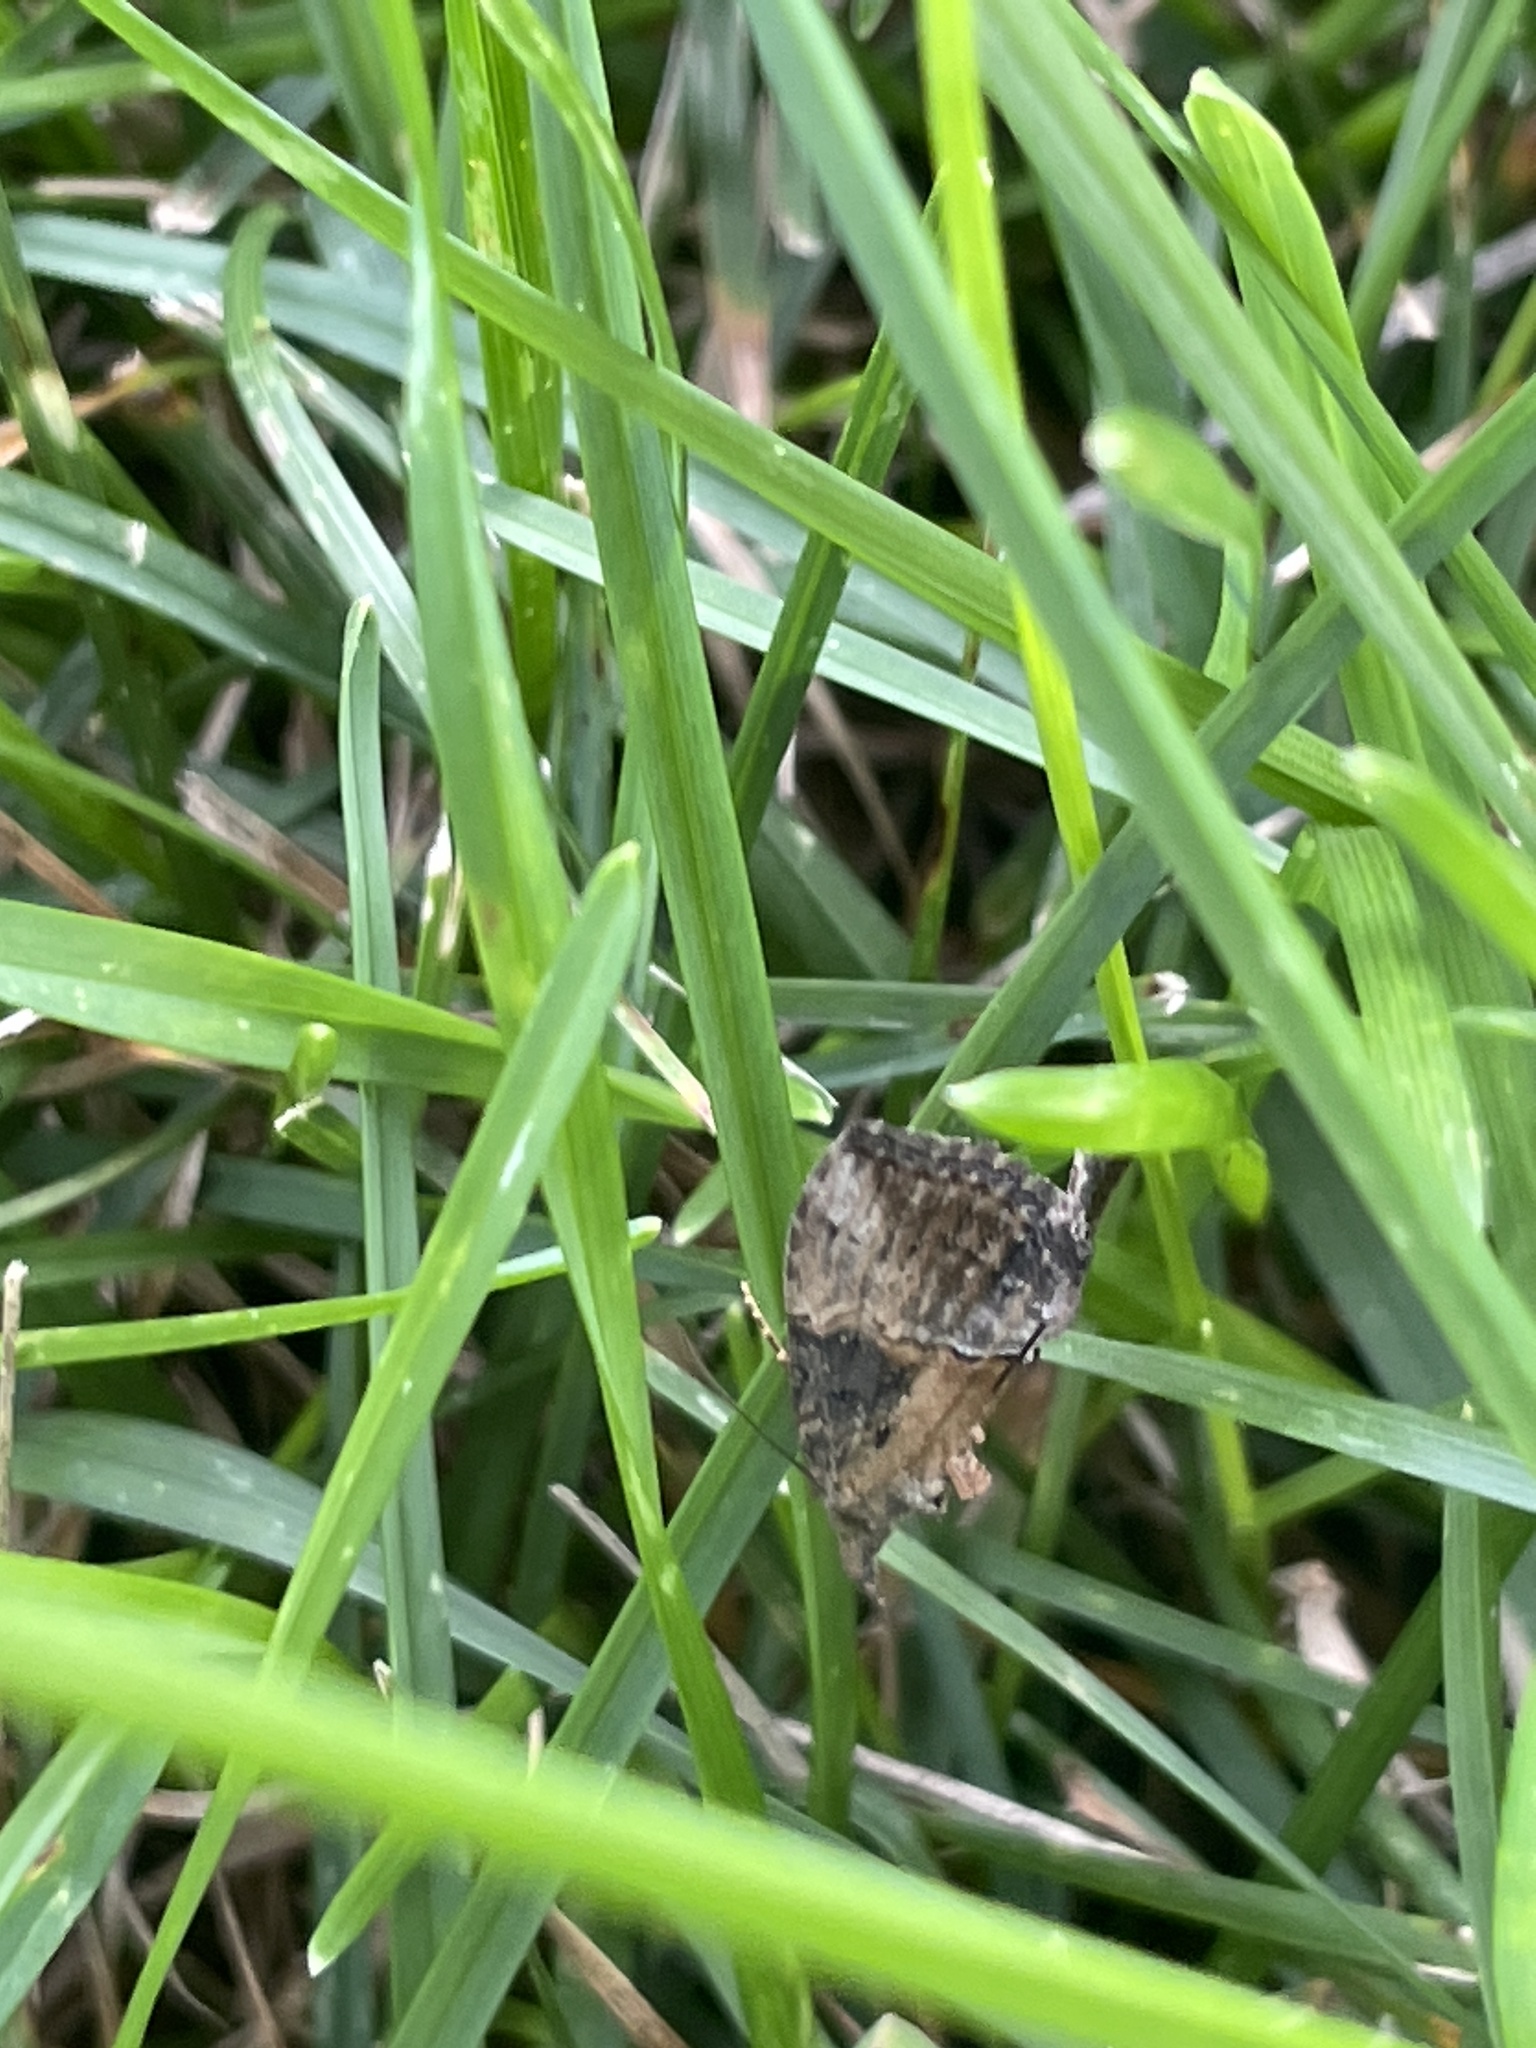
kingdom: Animalia
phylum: Arthropoda
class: Insecta
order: Lepidoptera
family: Erebidae
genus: Hypena
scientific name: Hypena scabra
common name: Green cloverworm
